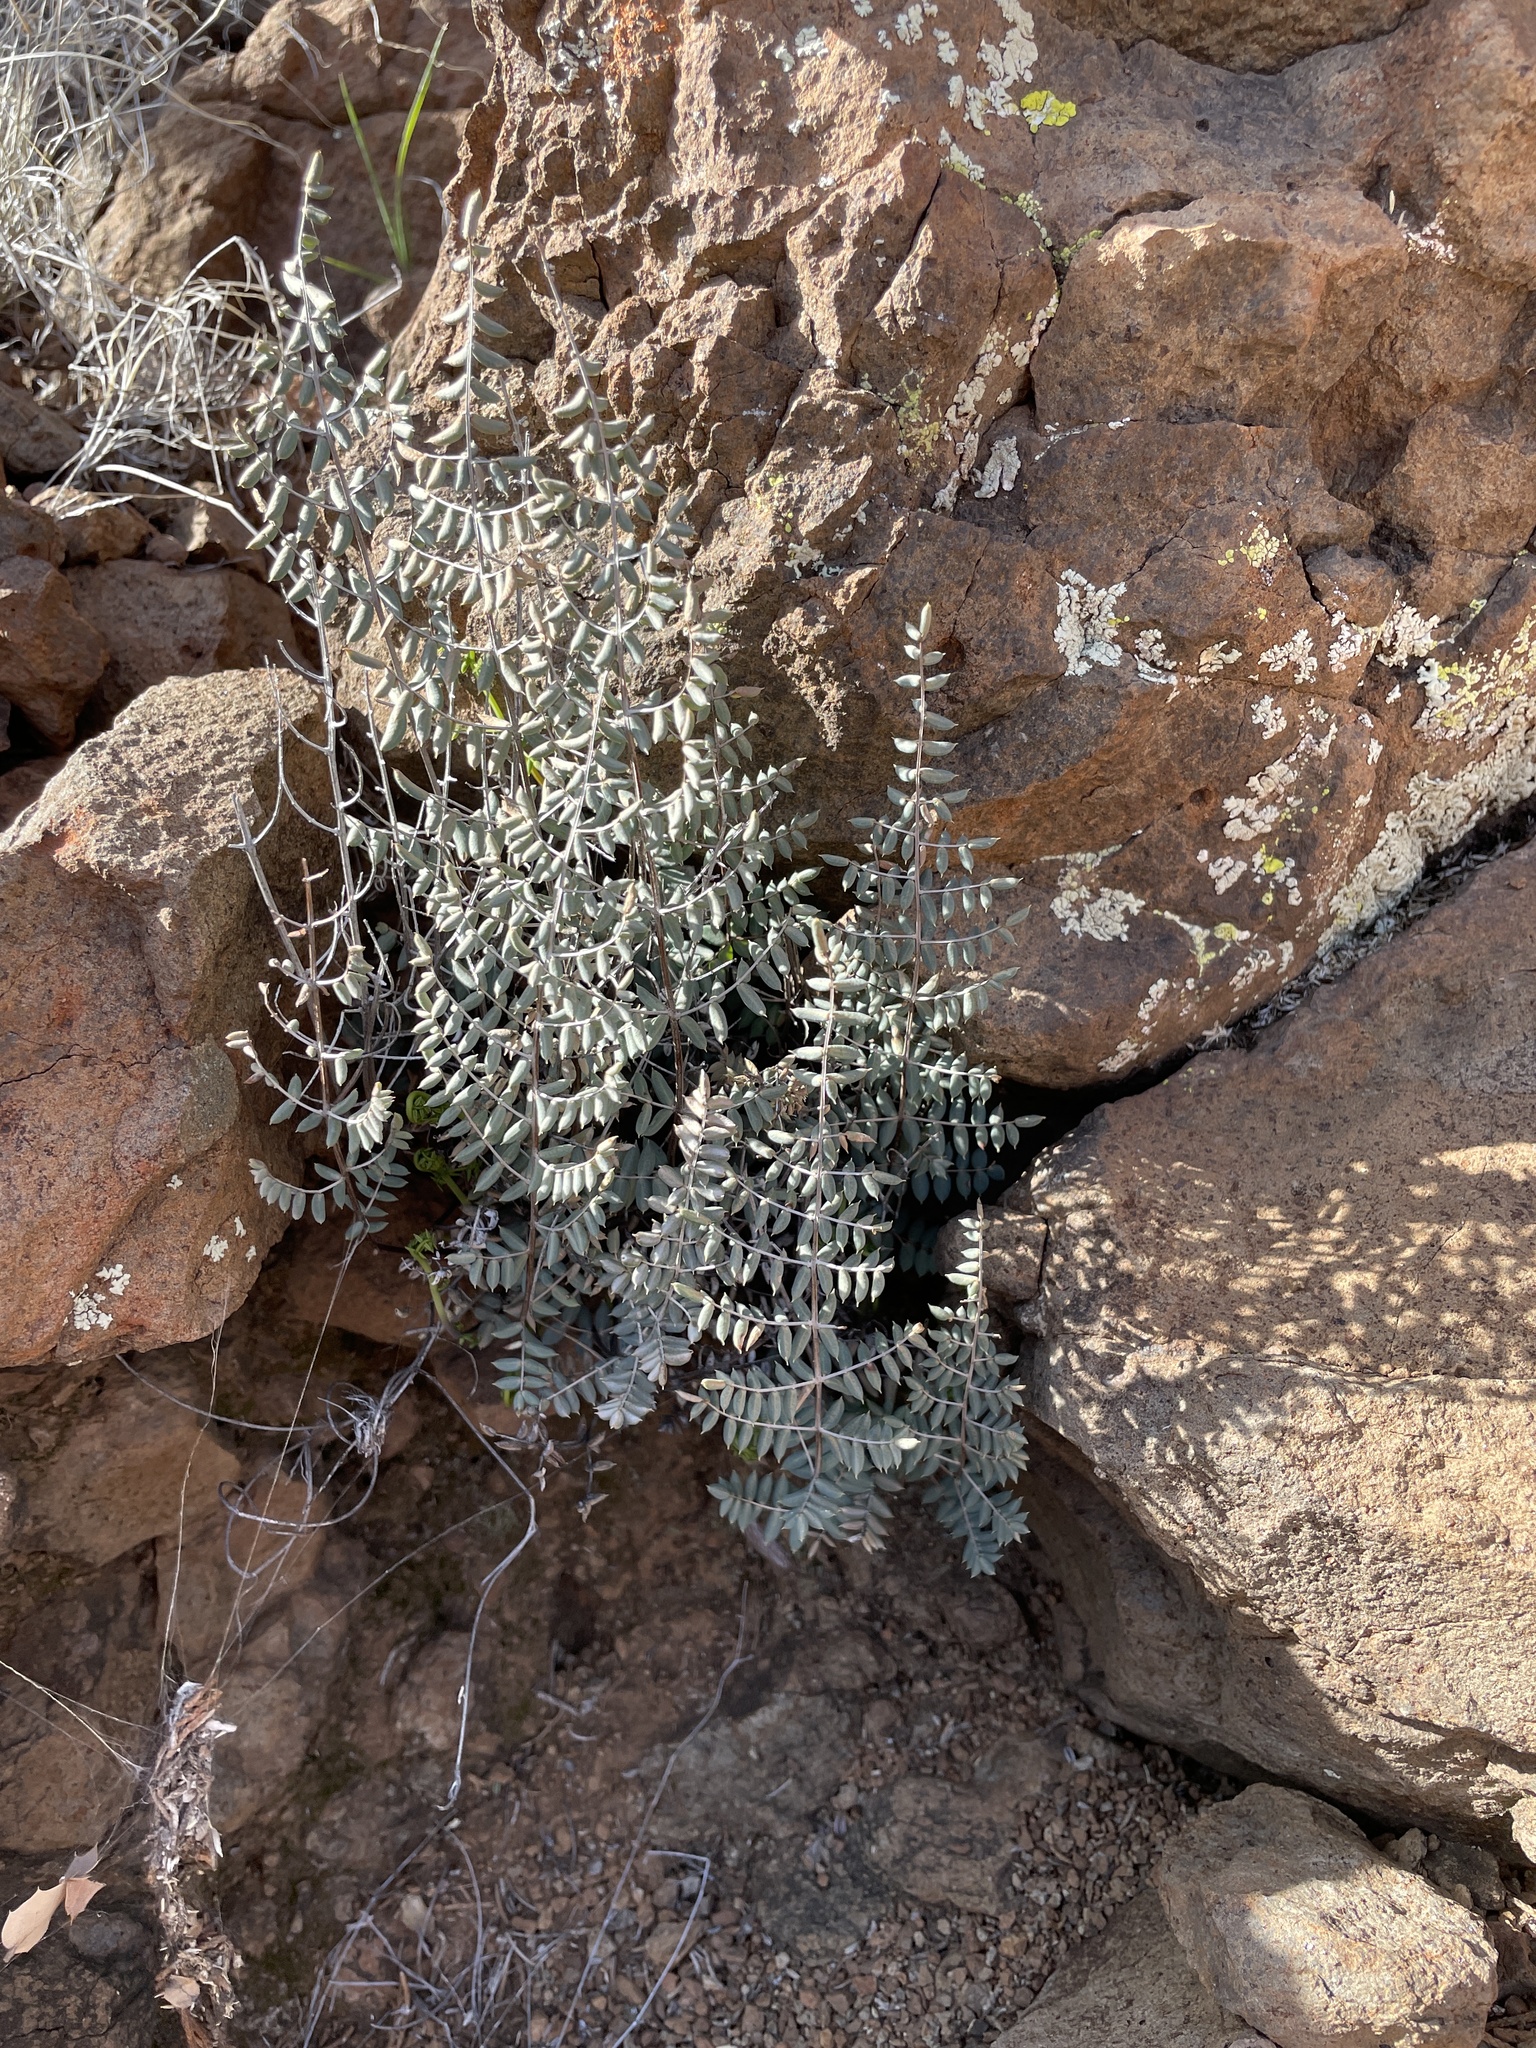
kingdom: Plantae
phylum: Tracheophyta
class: Polypodiopsida
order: Polypodiales
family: Pteridaceae
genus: Pellaea
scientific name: Pellaea truncata
